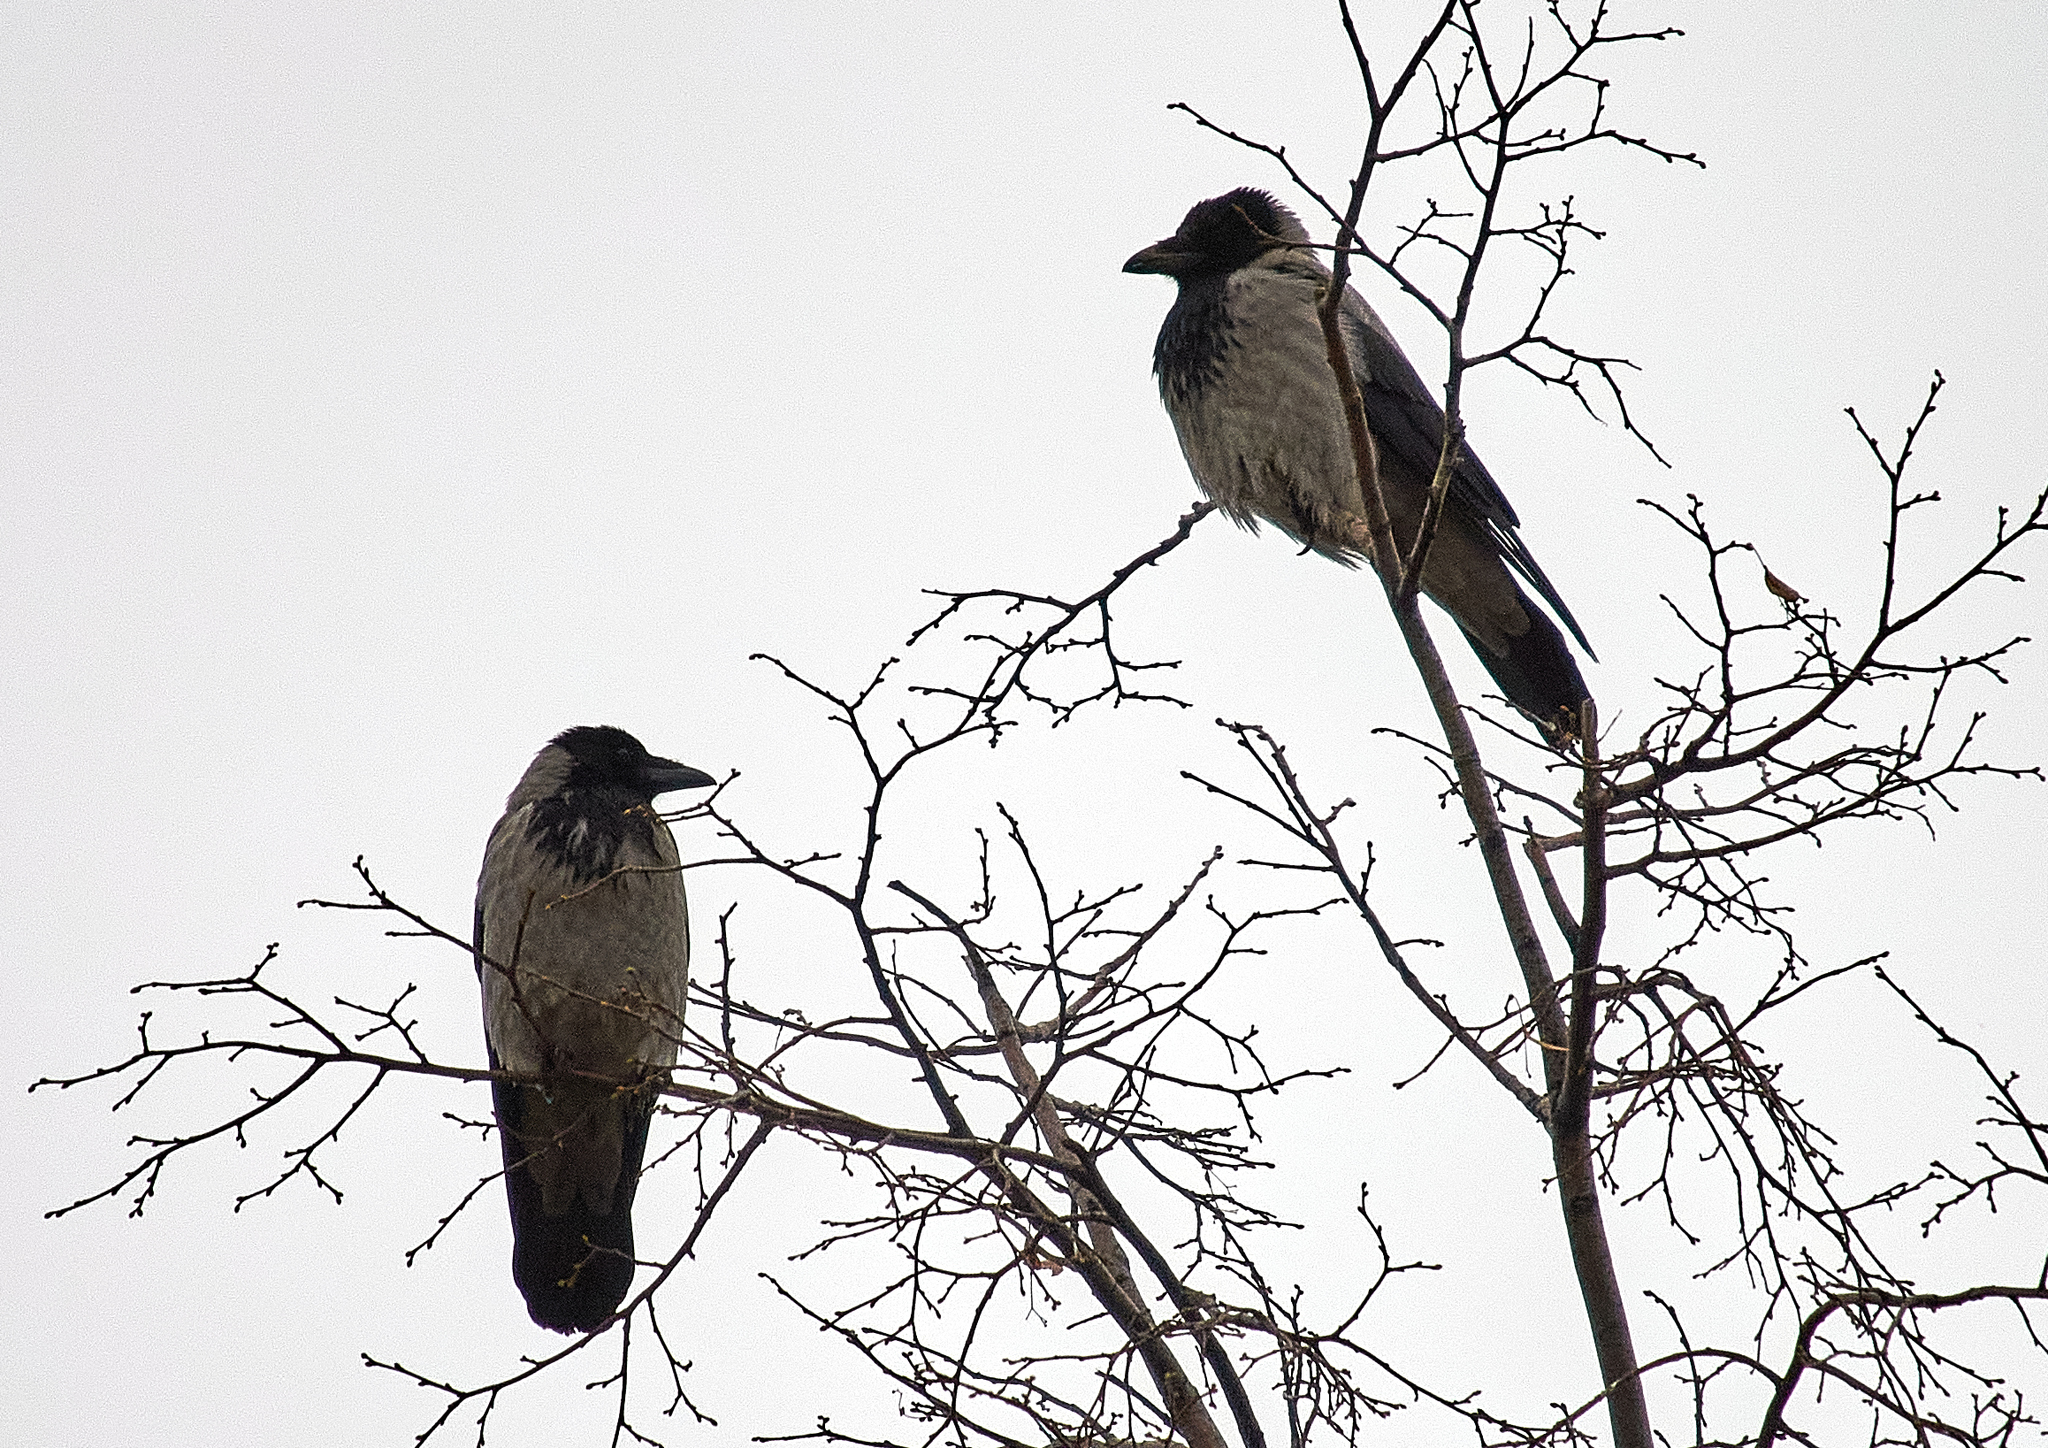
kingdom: Animalia
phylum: Chordata
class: Aves
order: Passeriformes
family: Corvidae
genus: Corvus
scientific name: Corvus cornix
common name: Hooded crow
